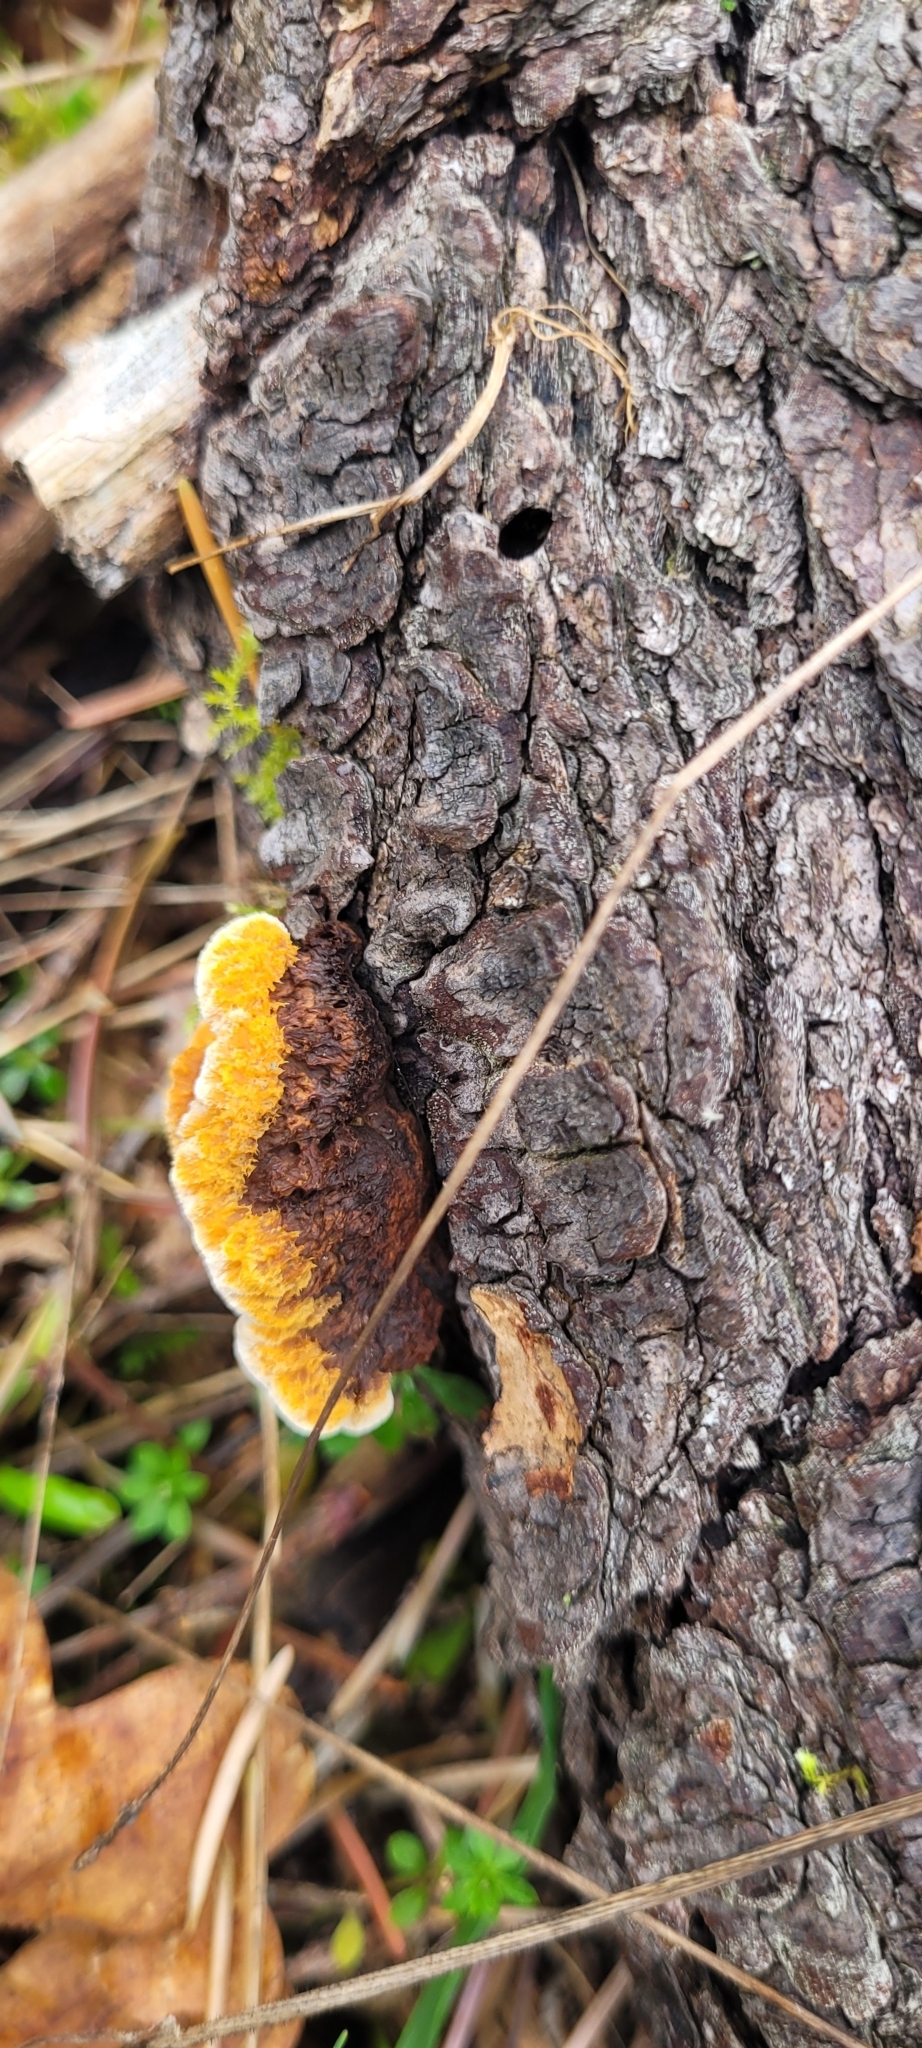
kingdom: Fungi
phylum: Basidiomycota
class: Agaricomycetes
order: Gloeophyllales
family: Gloeophyllaceae
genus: Gloeophyllum
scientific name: Gloeophyllum sepiarium
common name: Conifer mazegill
